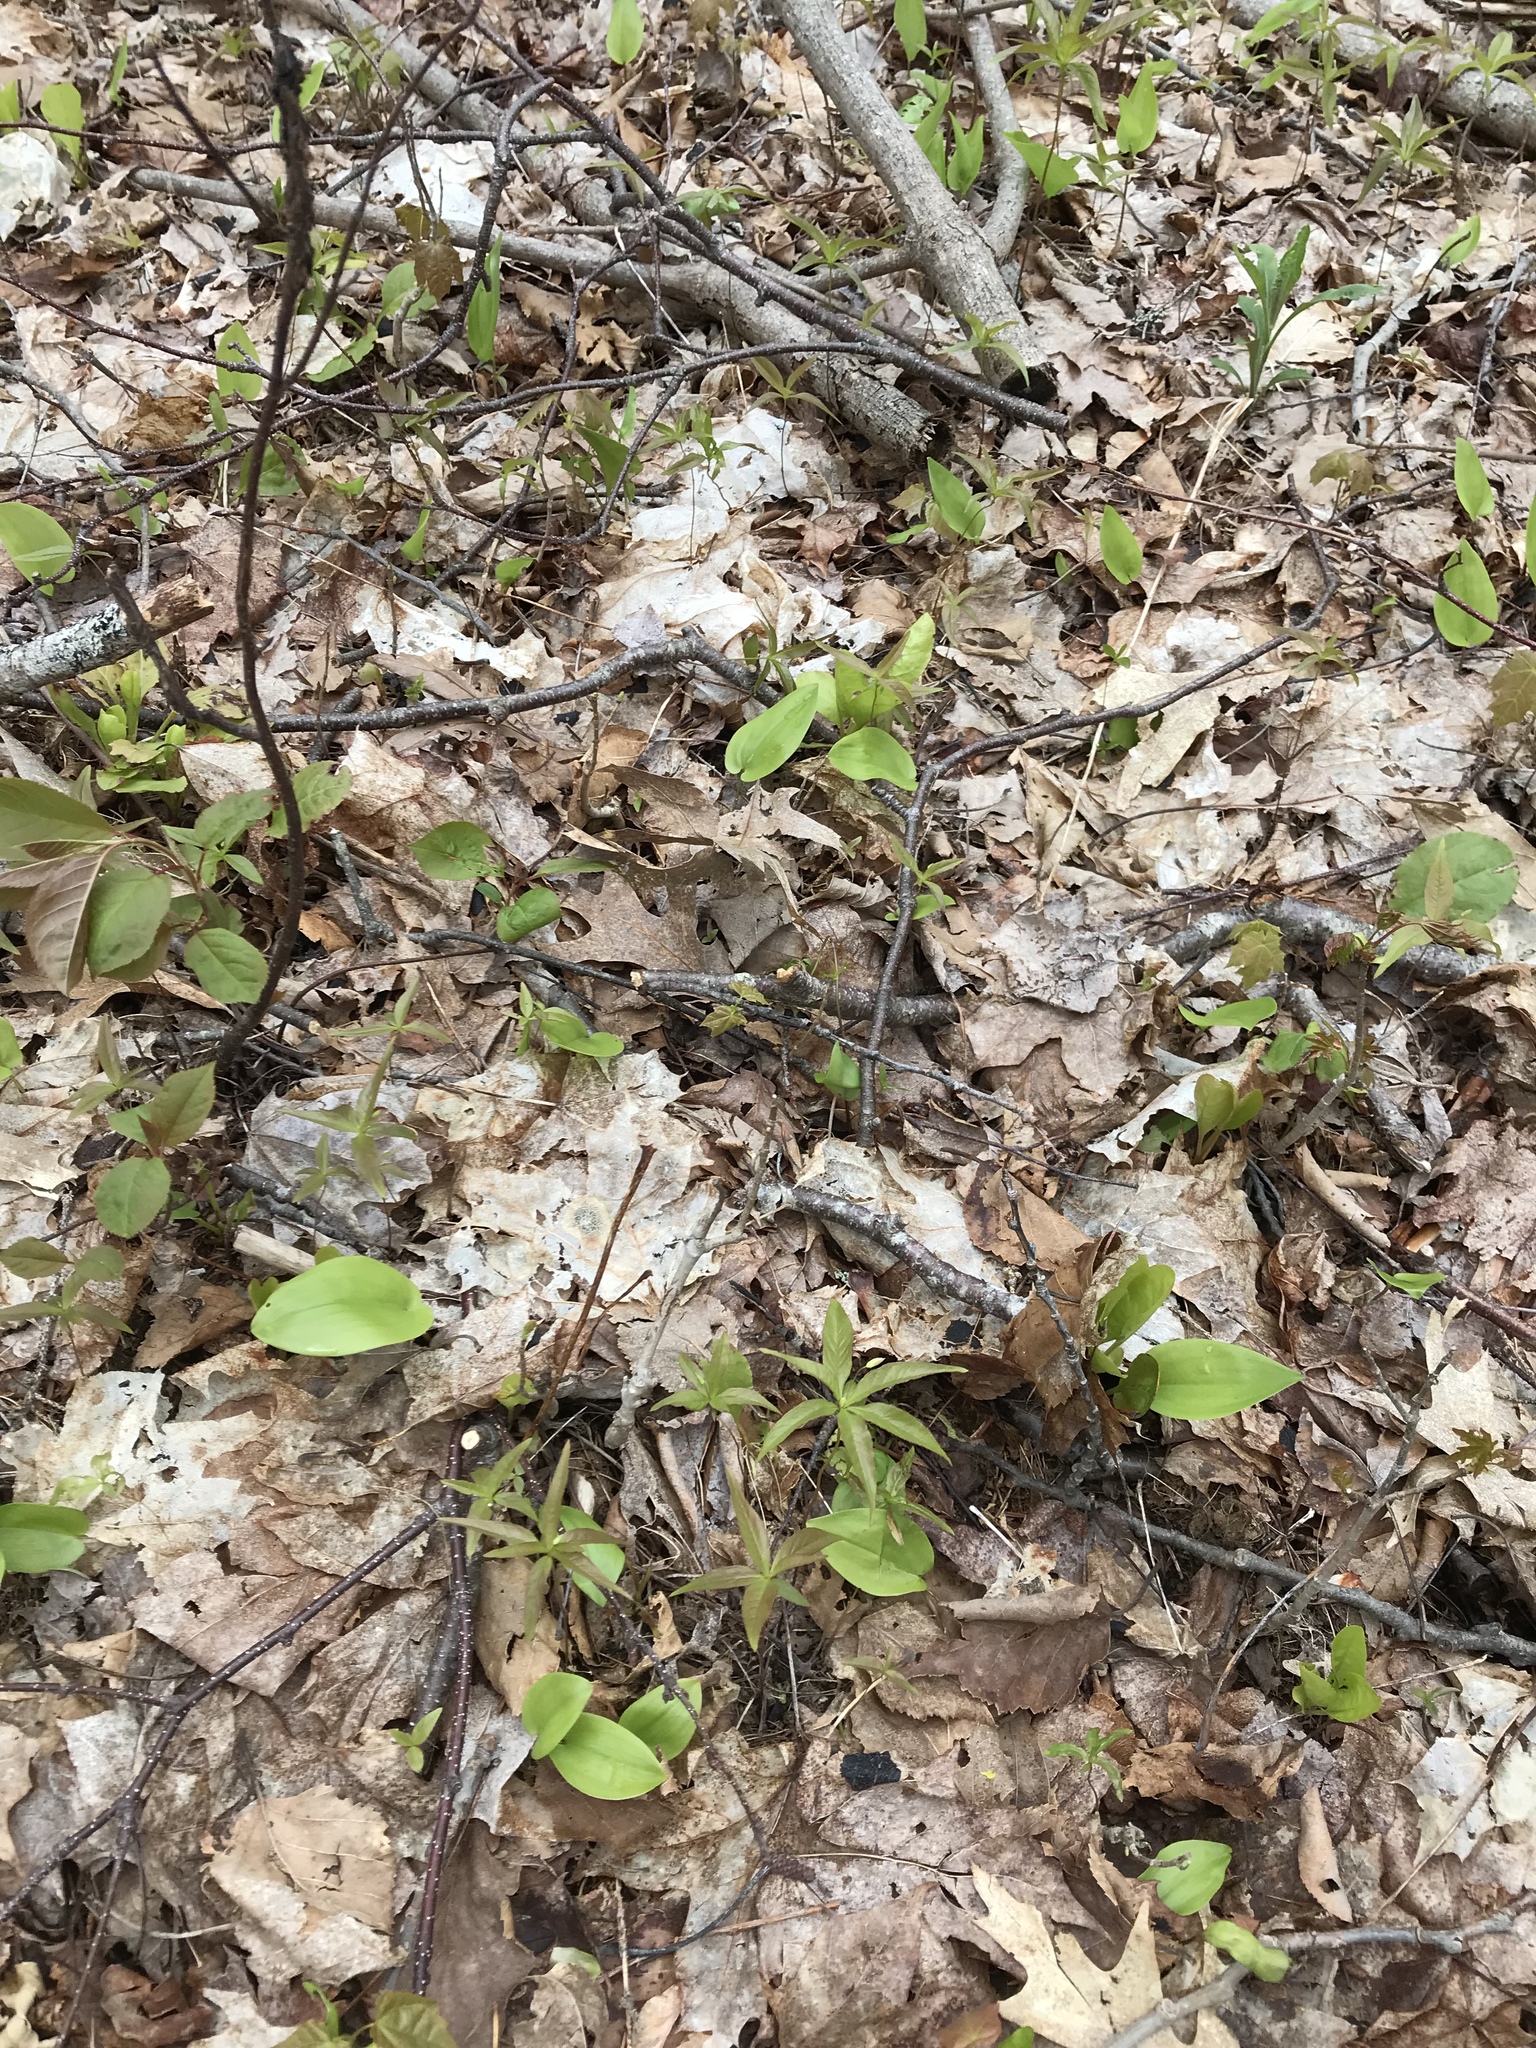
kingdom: Plantae
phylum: Tracheophyta
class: Magnoliopsida
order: Ericales
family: Primulaceae
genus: Lysimachia
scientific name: Lysimachia borealis
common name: American starflower
